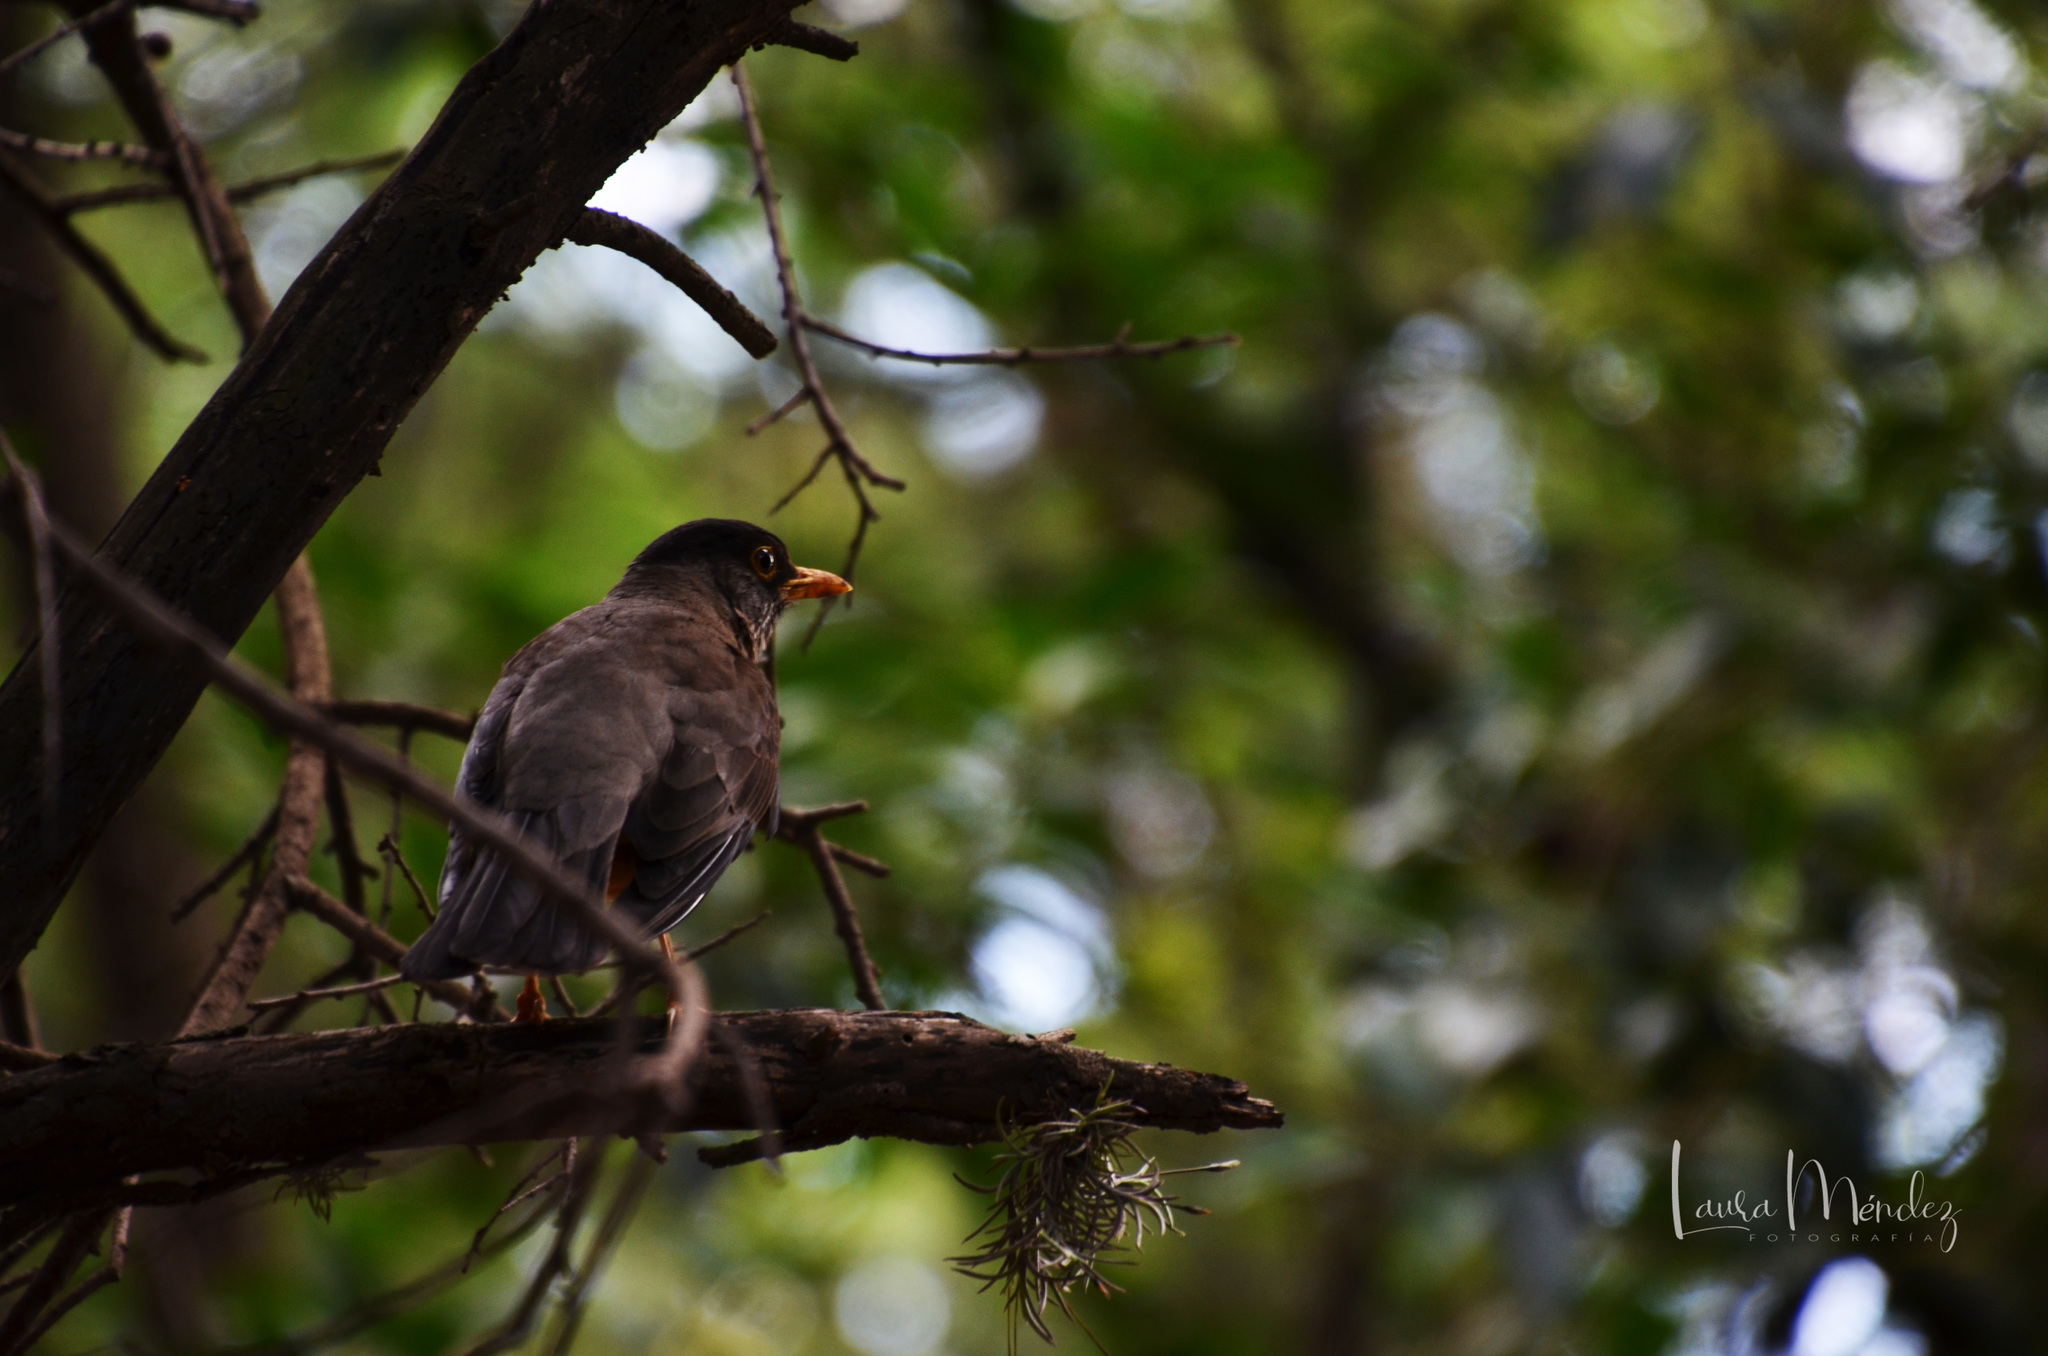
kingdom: Animalia
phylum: Chordata
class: Aves
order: Passeriformes
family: Turdidae
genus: Turdus
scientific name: Turdus falcklandii
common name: Austral thrush
